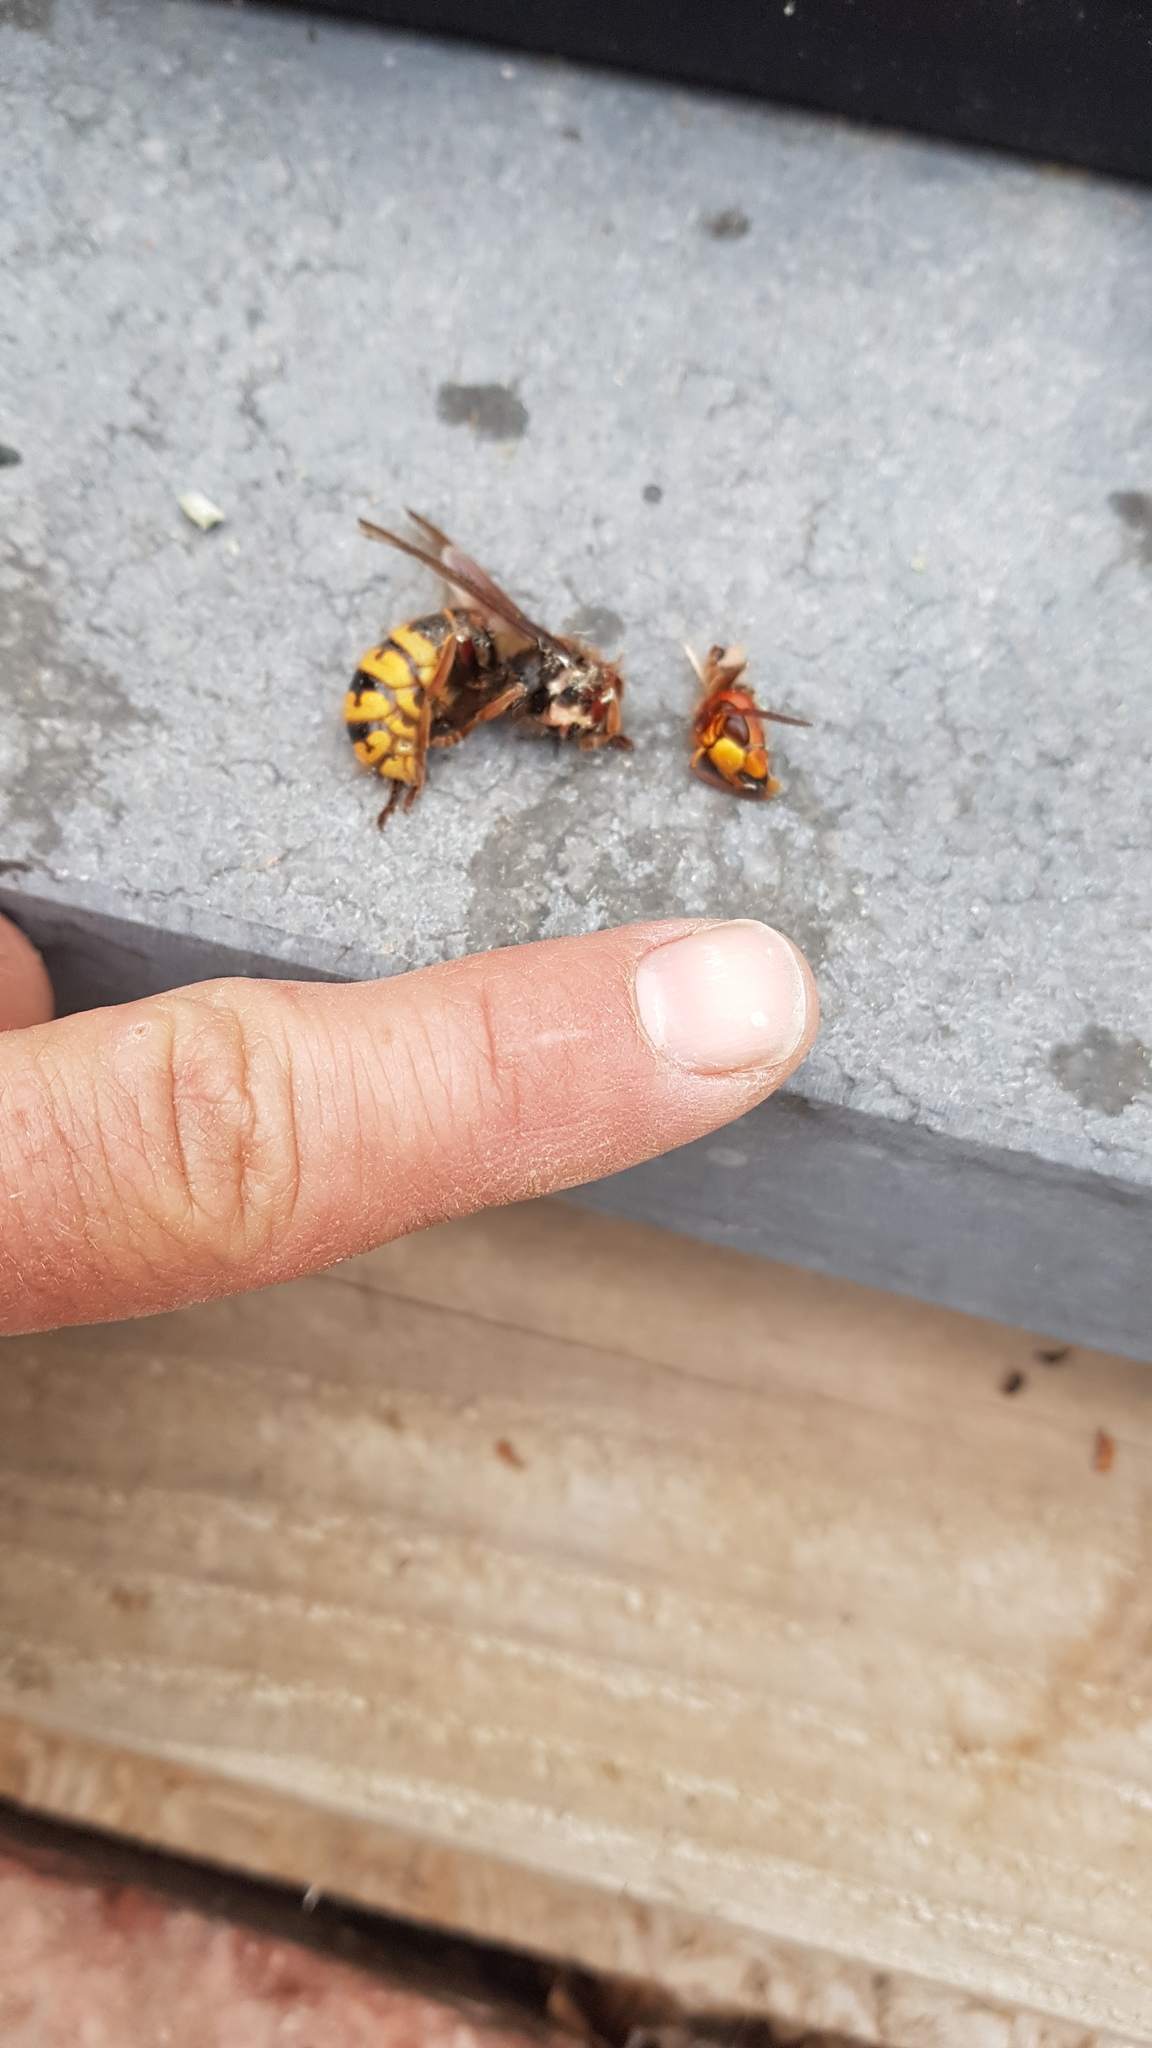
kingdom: Animalia
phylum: Arthropoda
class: Insecta
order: Hymenoptera
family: Vespidae
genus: Vespa
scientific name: Vespa crabro
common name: Hornet
